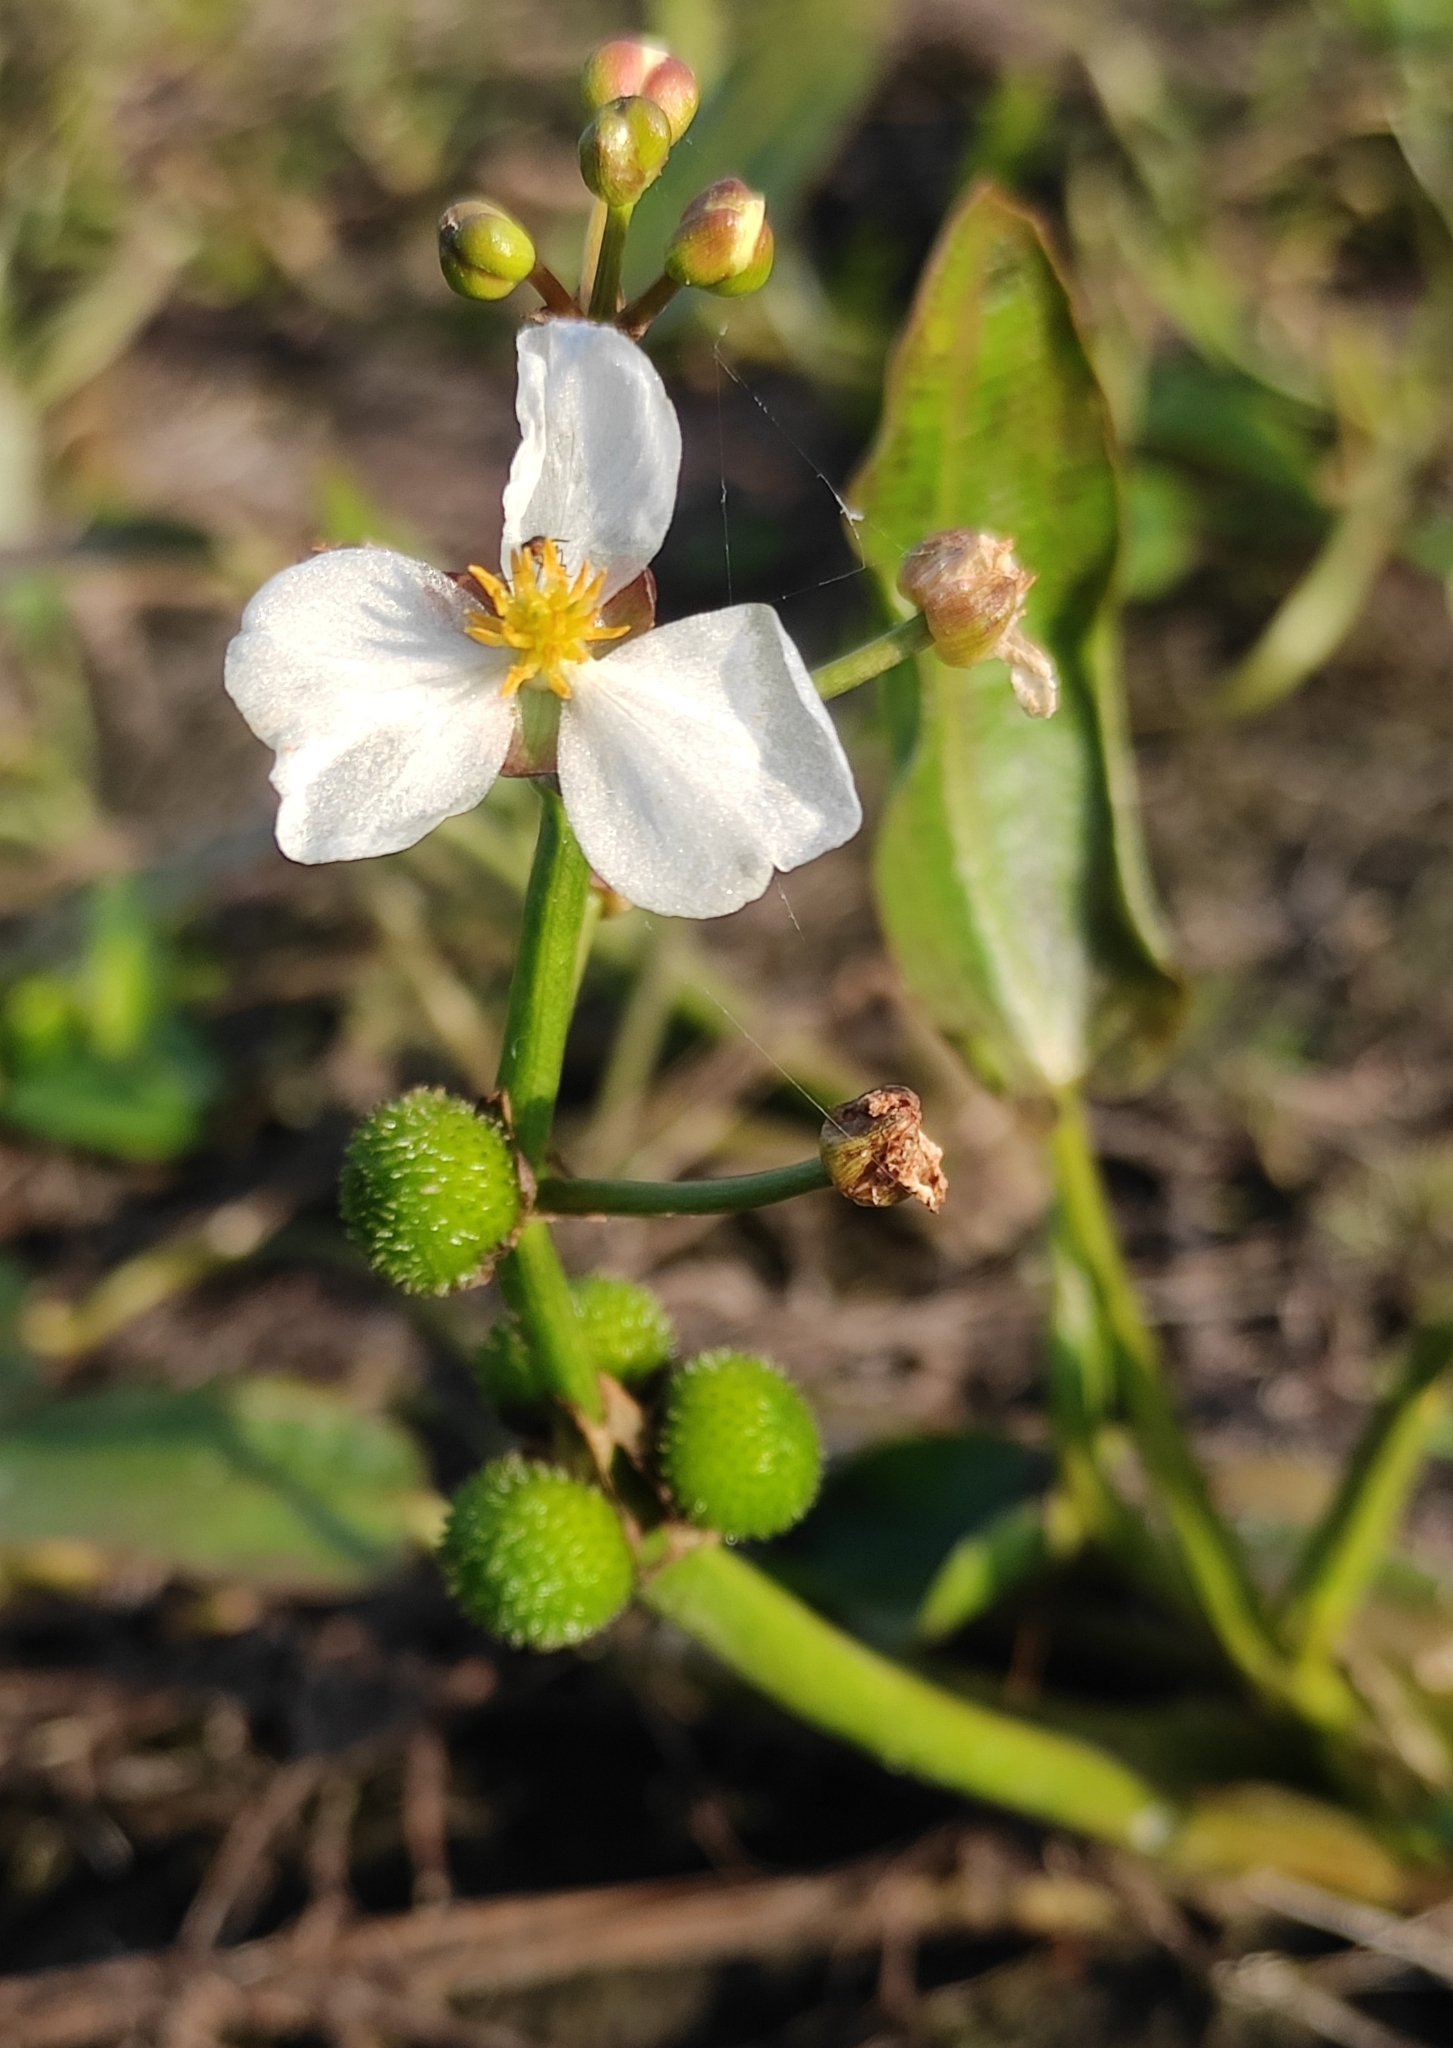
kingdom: Plantae
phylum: Tracheophyta
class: Liliopsida
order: Alismatales
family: Alismataceae
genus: Sagittaria
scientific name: Sagittaria natans
